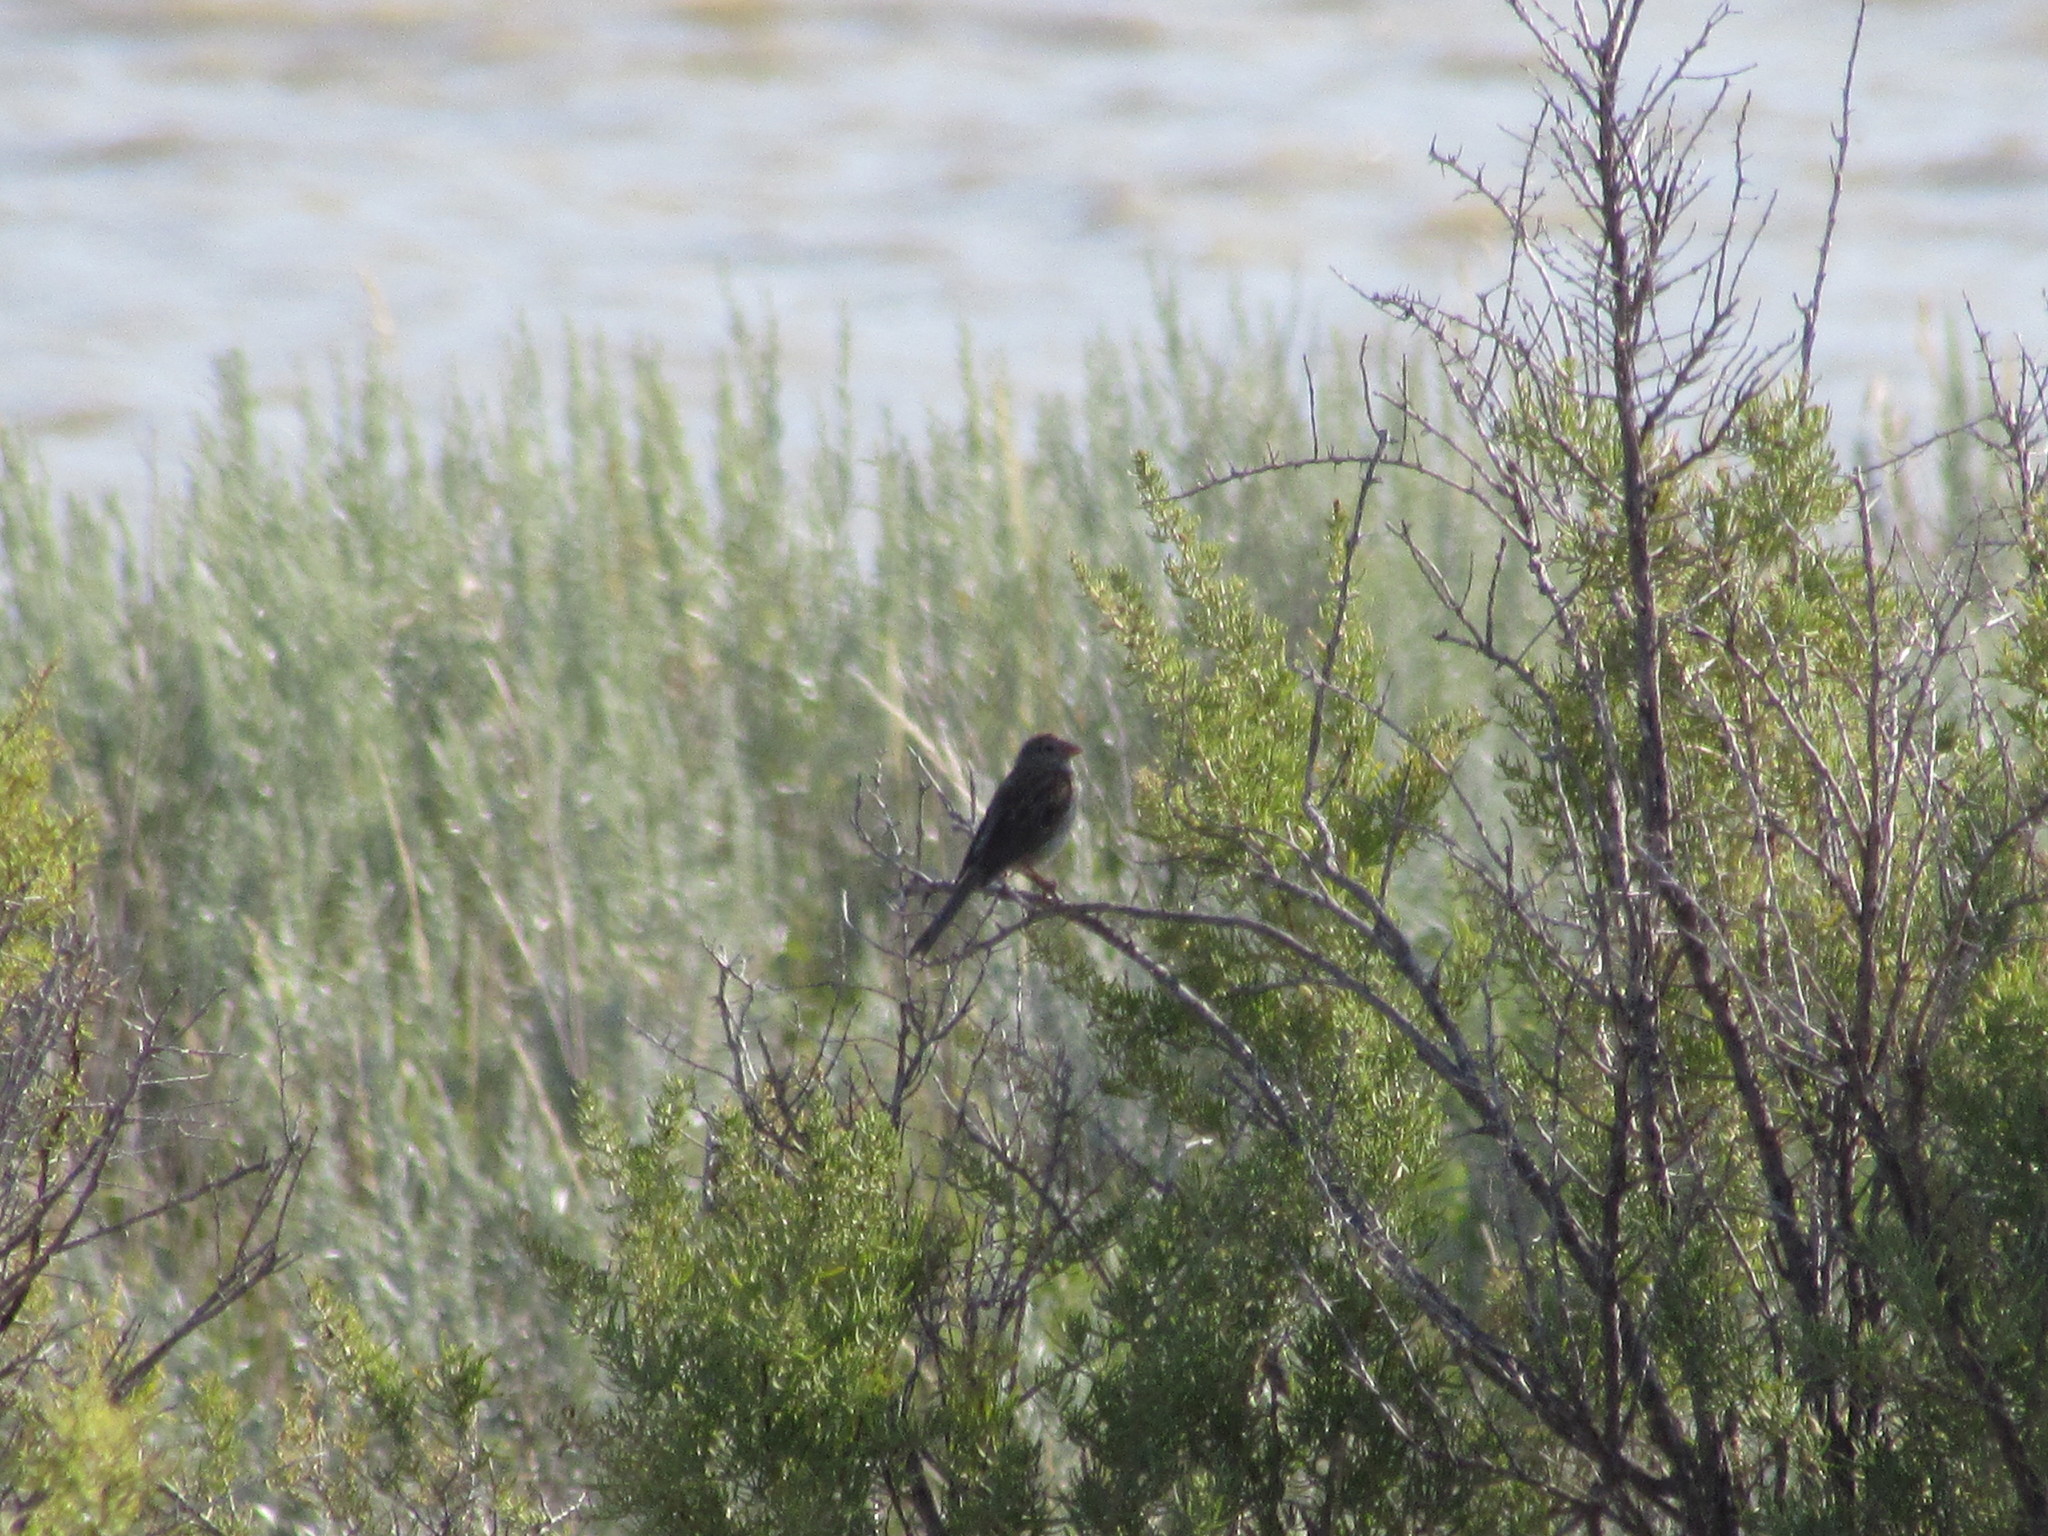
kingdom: Animalia
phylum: Chordata
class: Aves
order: Passeriformes
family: Passerellidae
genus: Spizella
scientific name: Spizella pusilla
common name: Field sparrow
